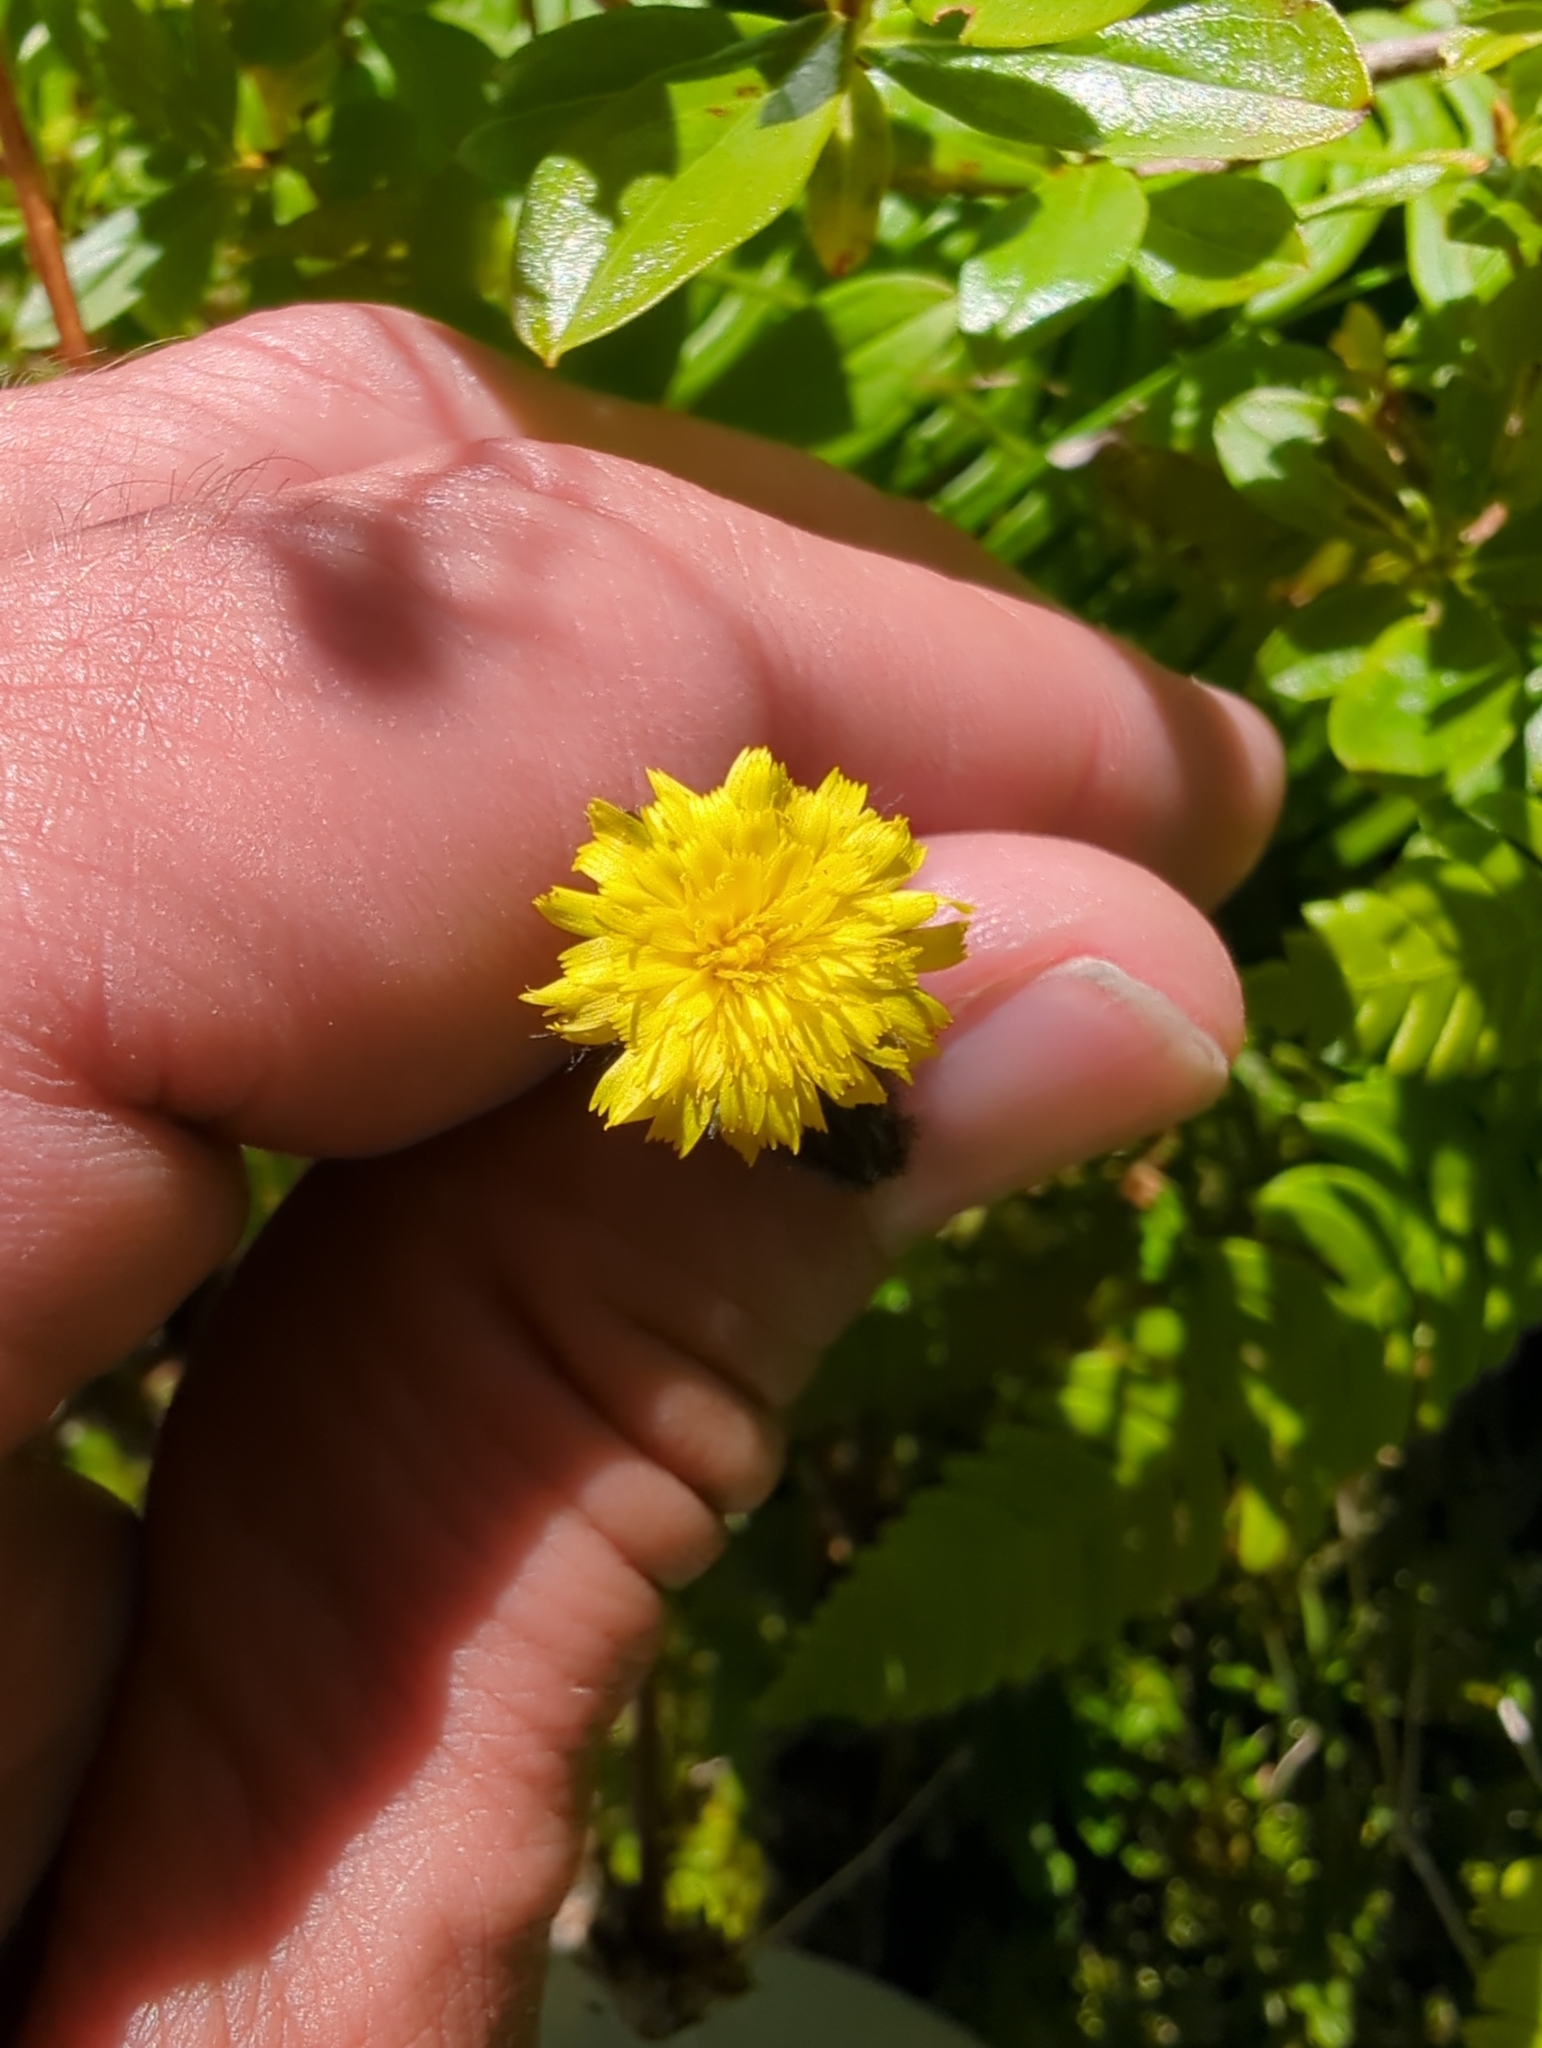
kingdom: Plantae
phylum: Tracheophyta
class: Magnoliopsida
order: Asterales
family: Asteraceae
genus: Hieracium
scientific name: Hieracium triste
